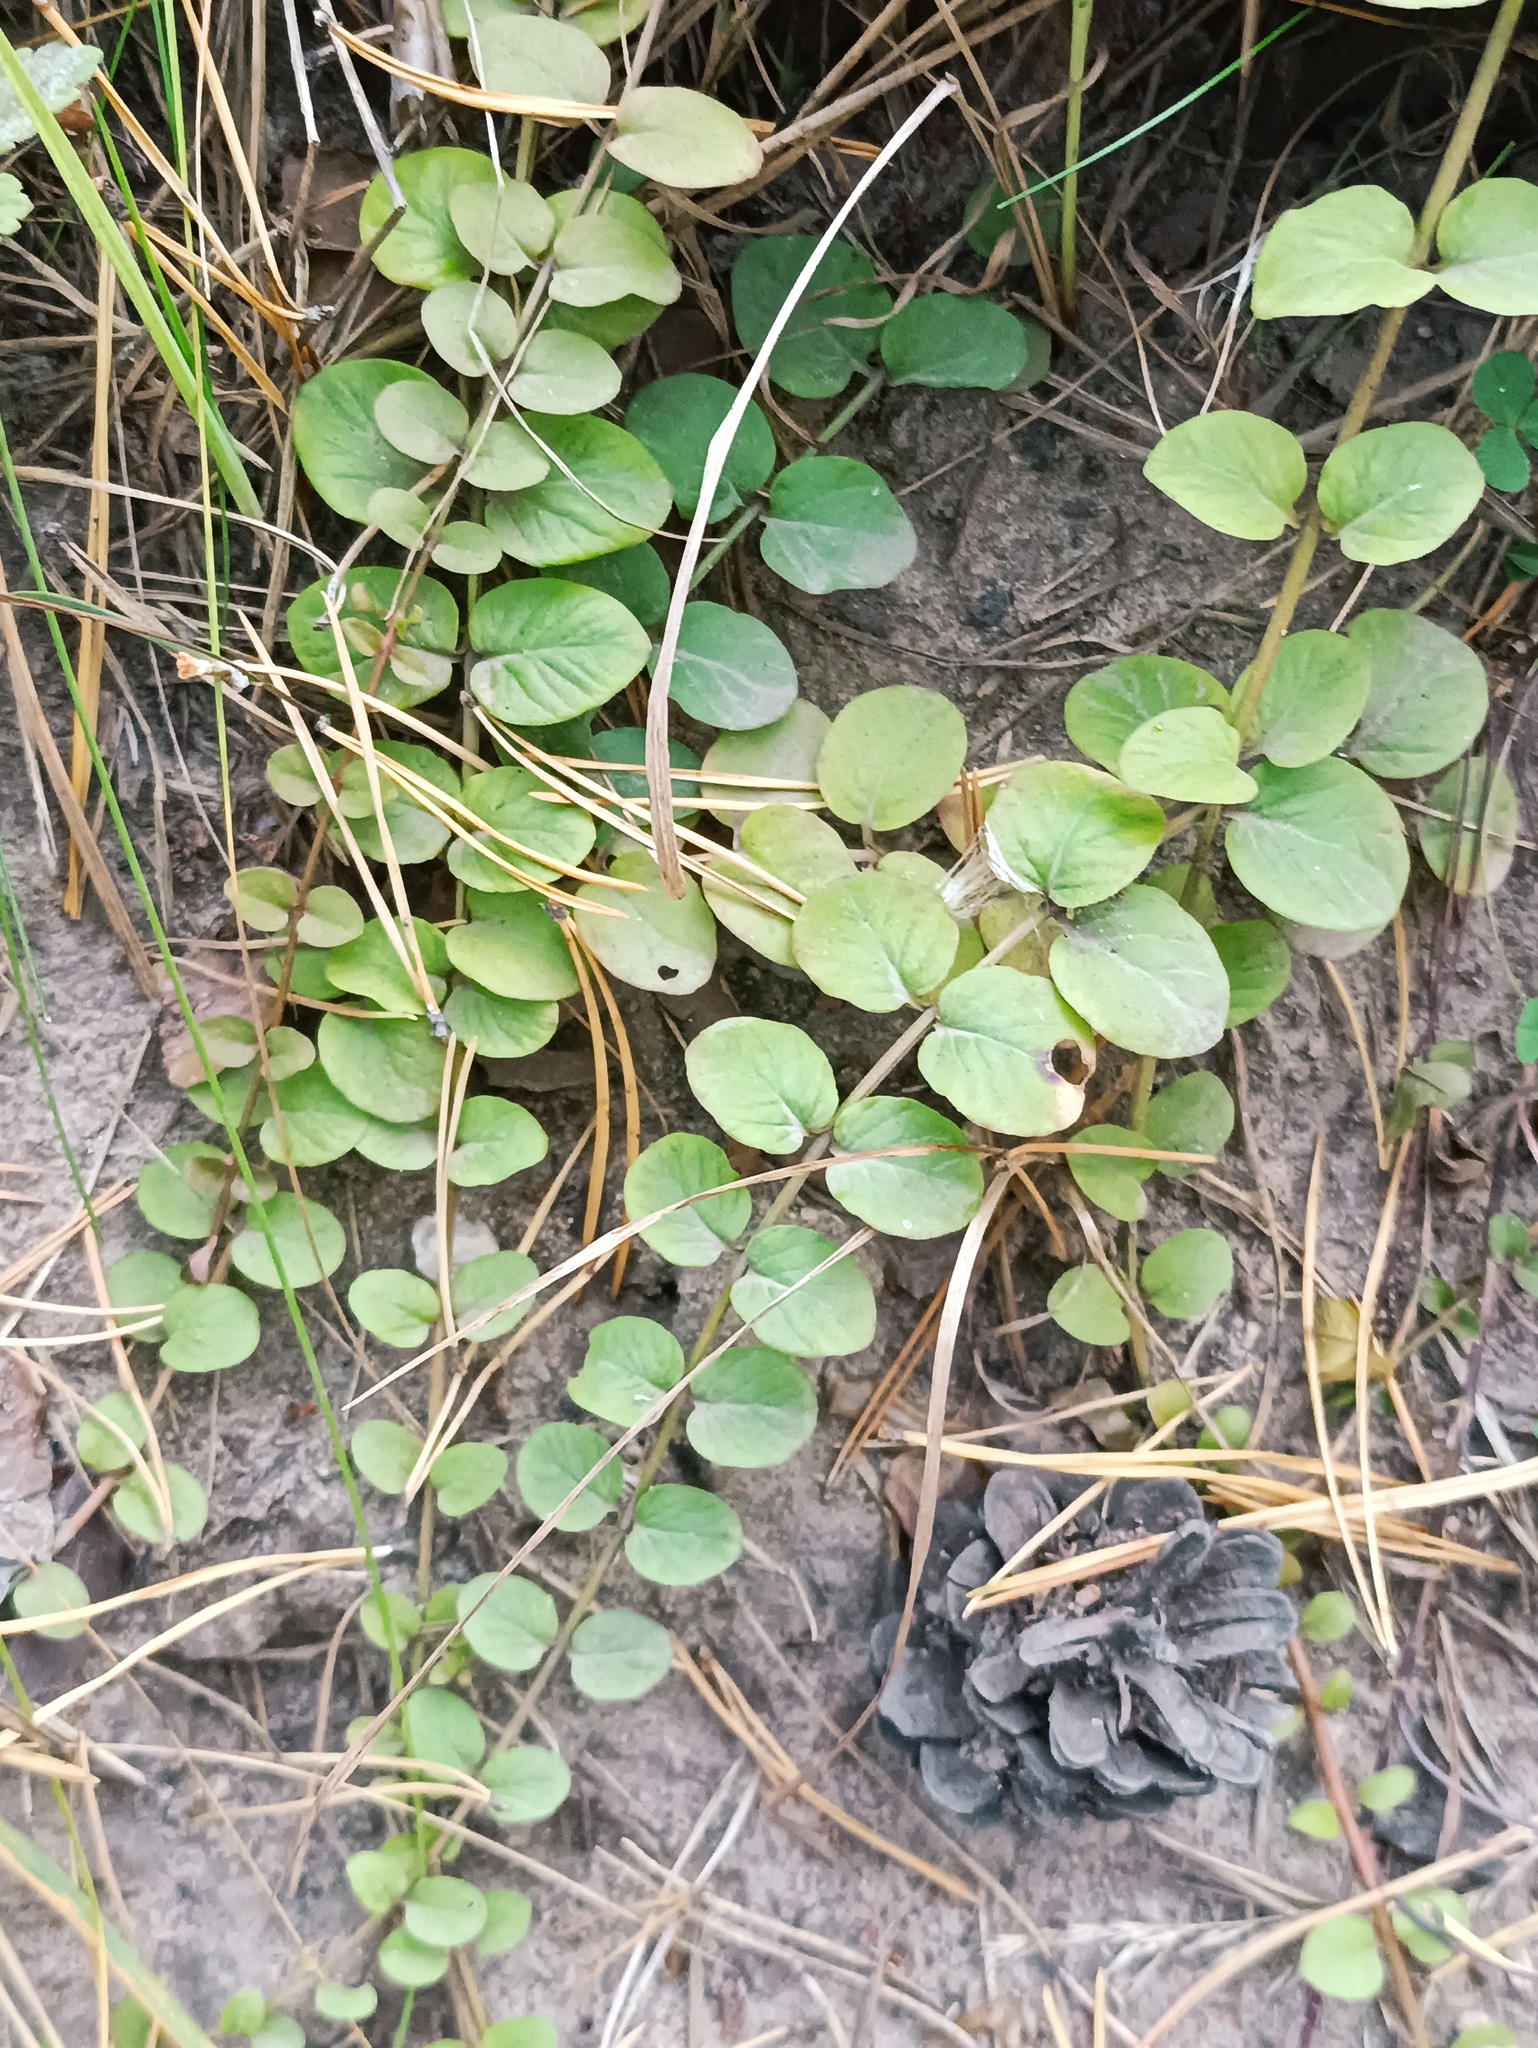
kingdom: Plantae
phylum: Tracheophyta
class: Magnoliopsida
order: Ericales
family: Primulaceae
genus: Lysimachia
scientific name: Lysimachia nummularia
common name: Moneywort
